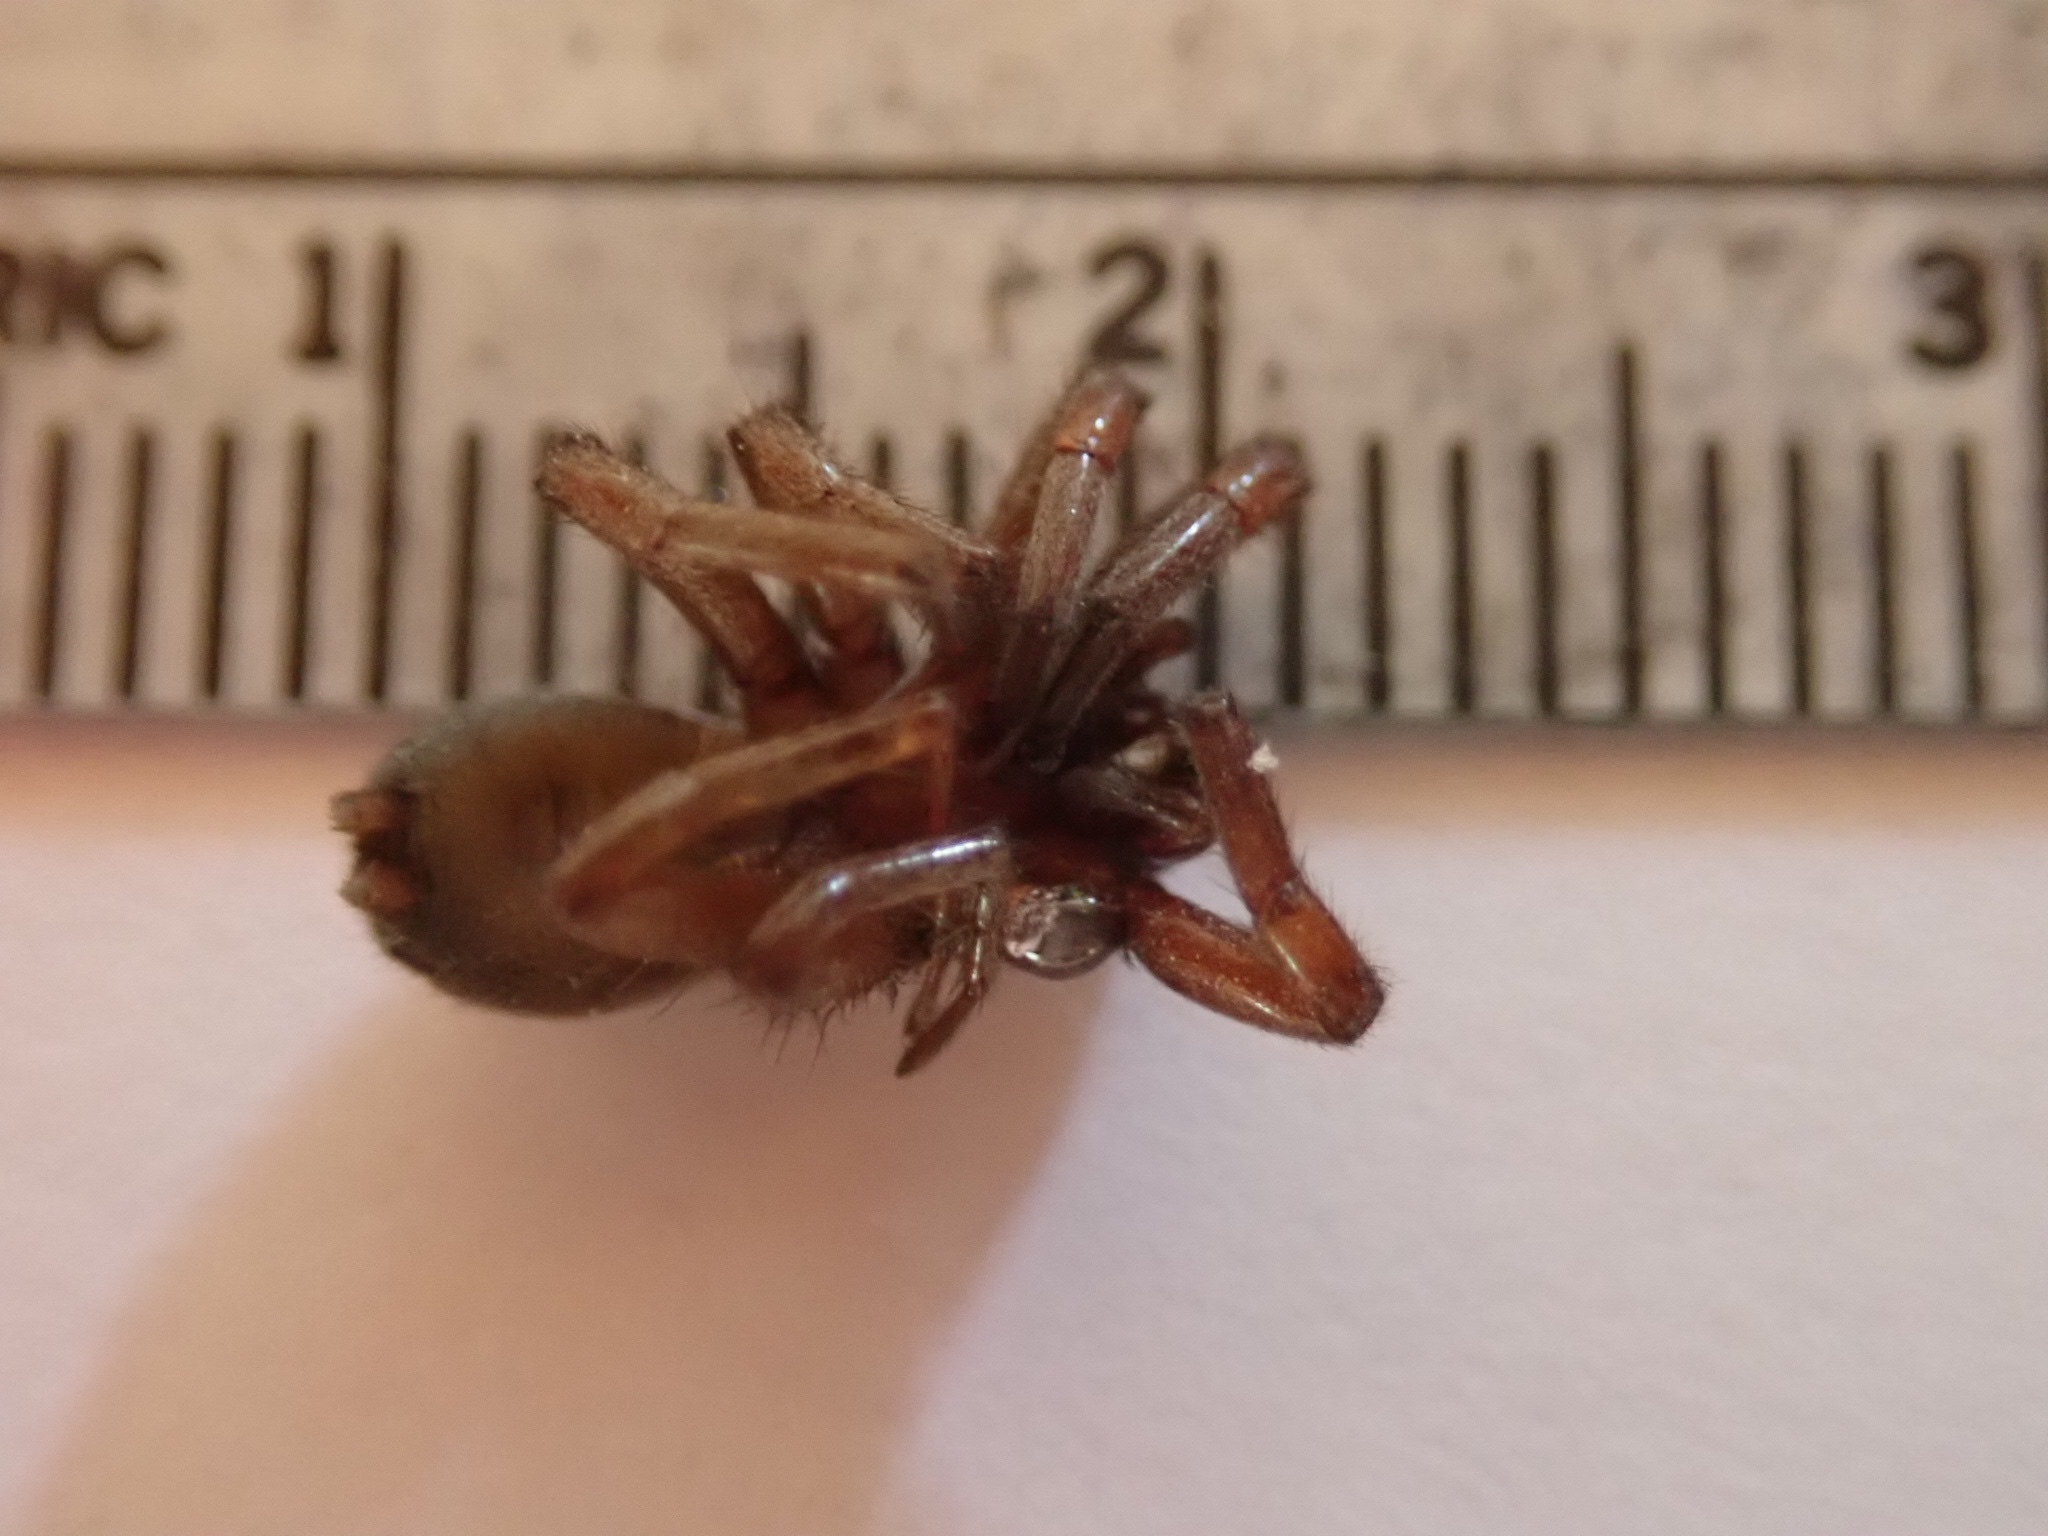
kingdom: Animalia
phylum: Arthropoda
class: Arachnida
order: Araneae
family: Gnaphosidae
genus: Scotophaeus
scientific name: Scotophaeus blackwalli
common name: Mouse spider
